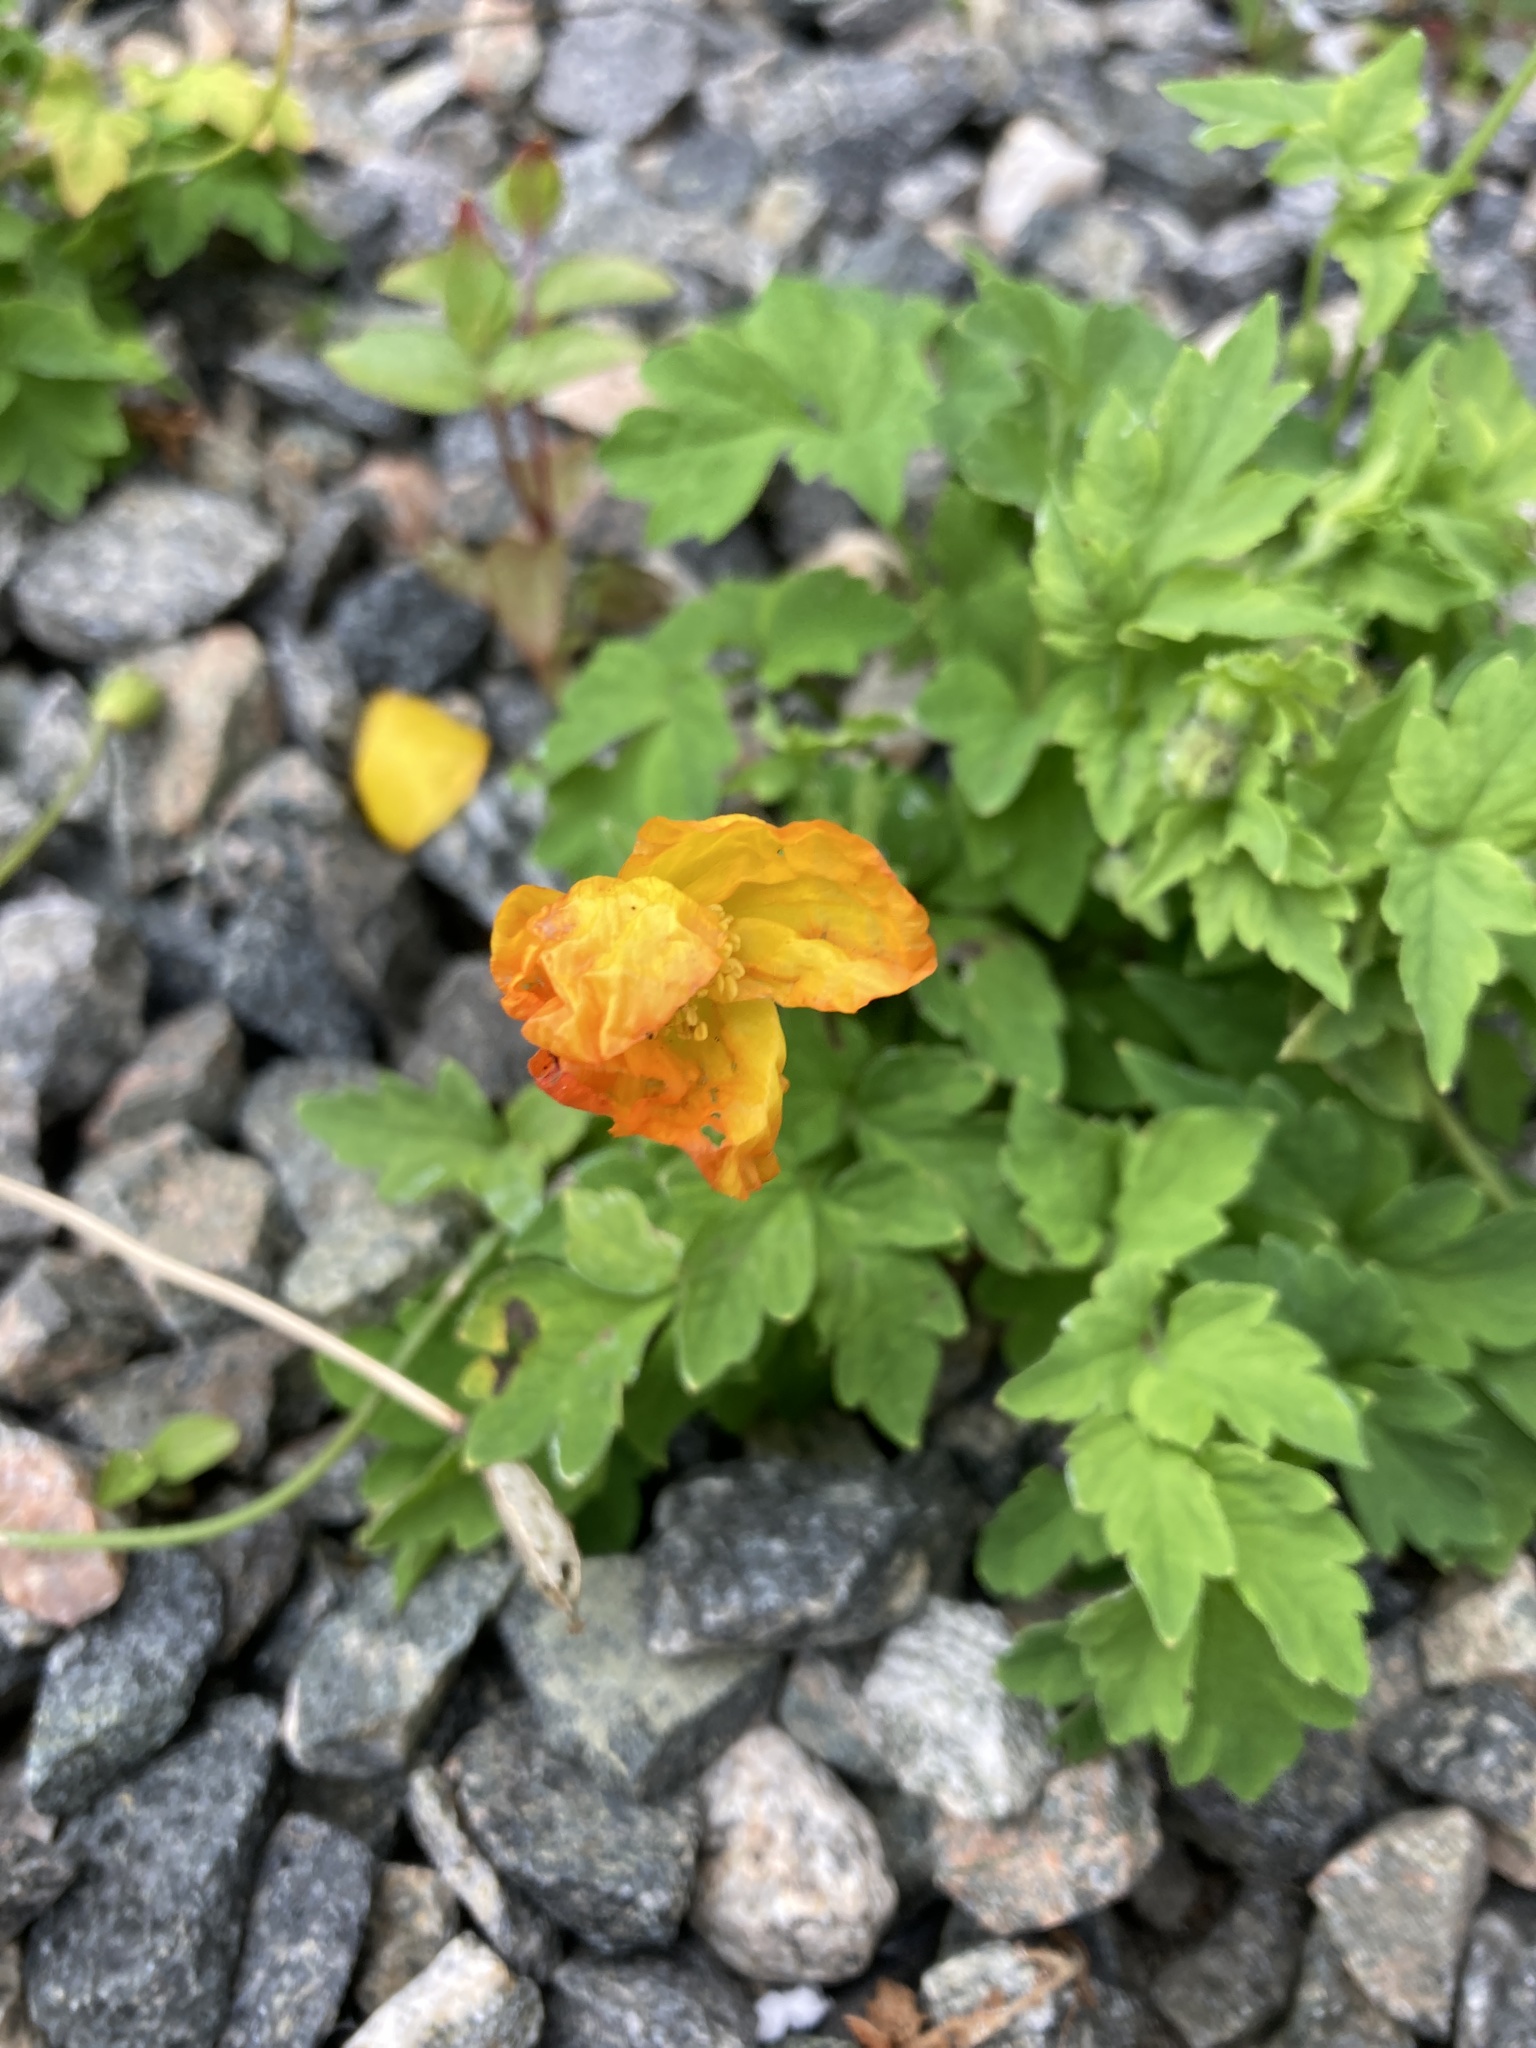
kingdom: Plantae
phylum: Tracheophyta
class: Magnoliopsida
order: Ranunculales
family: Papaveraceae
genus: Papaver
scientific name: Papaver cambricum
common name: Poppy
